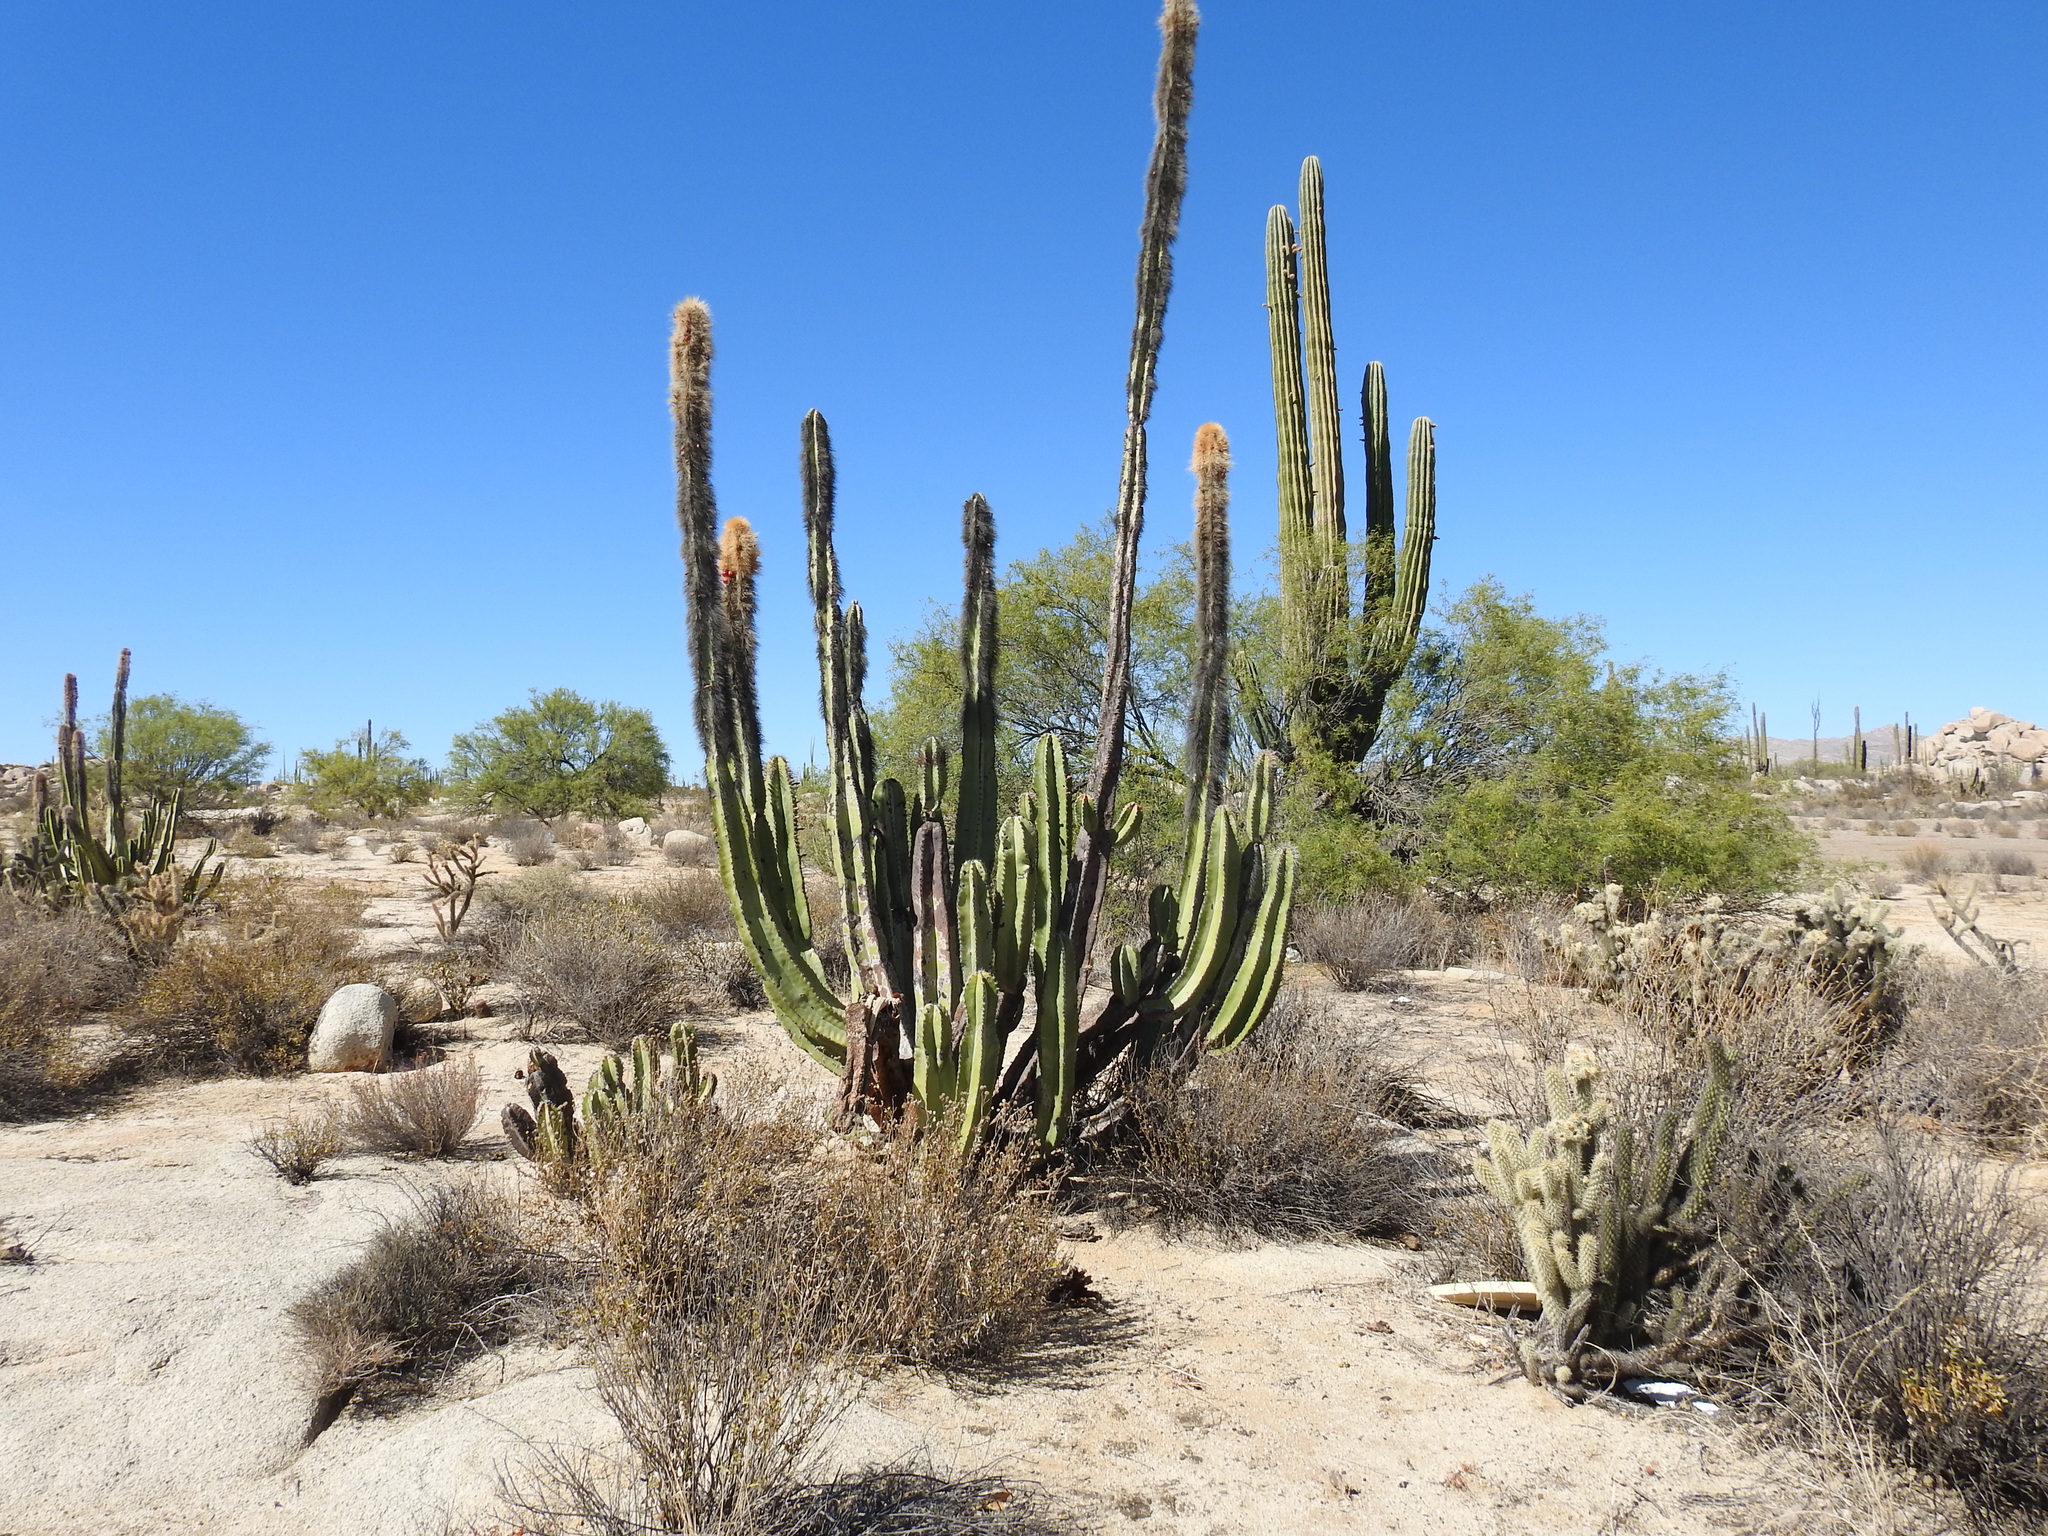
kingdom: Plantae
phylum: Tracheophyta
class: Magnoliopsida
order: Caryophyllales
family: Cactaceae
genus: Pachycereus
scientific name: Pachycereus schottii
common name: Senita cactus
